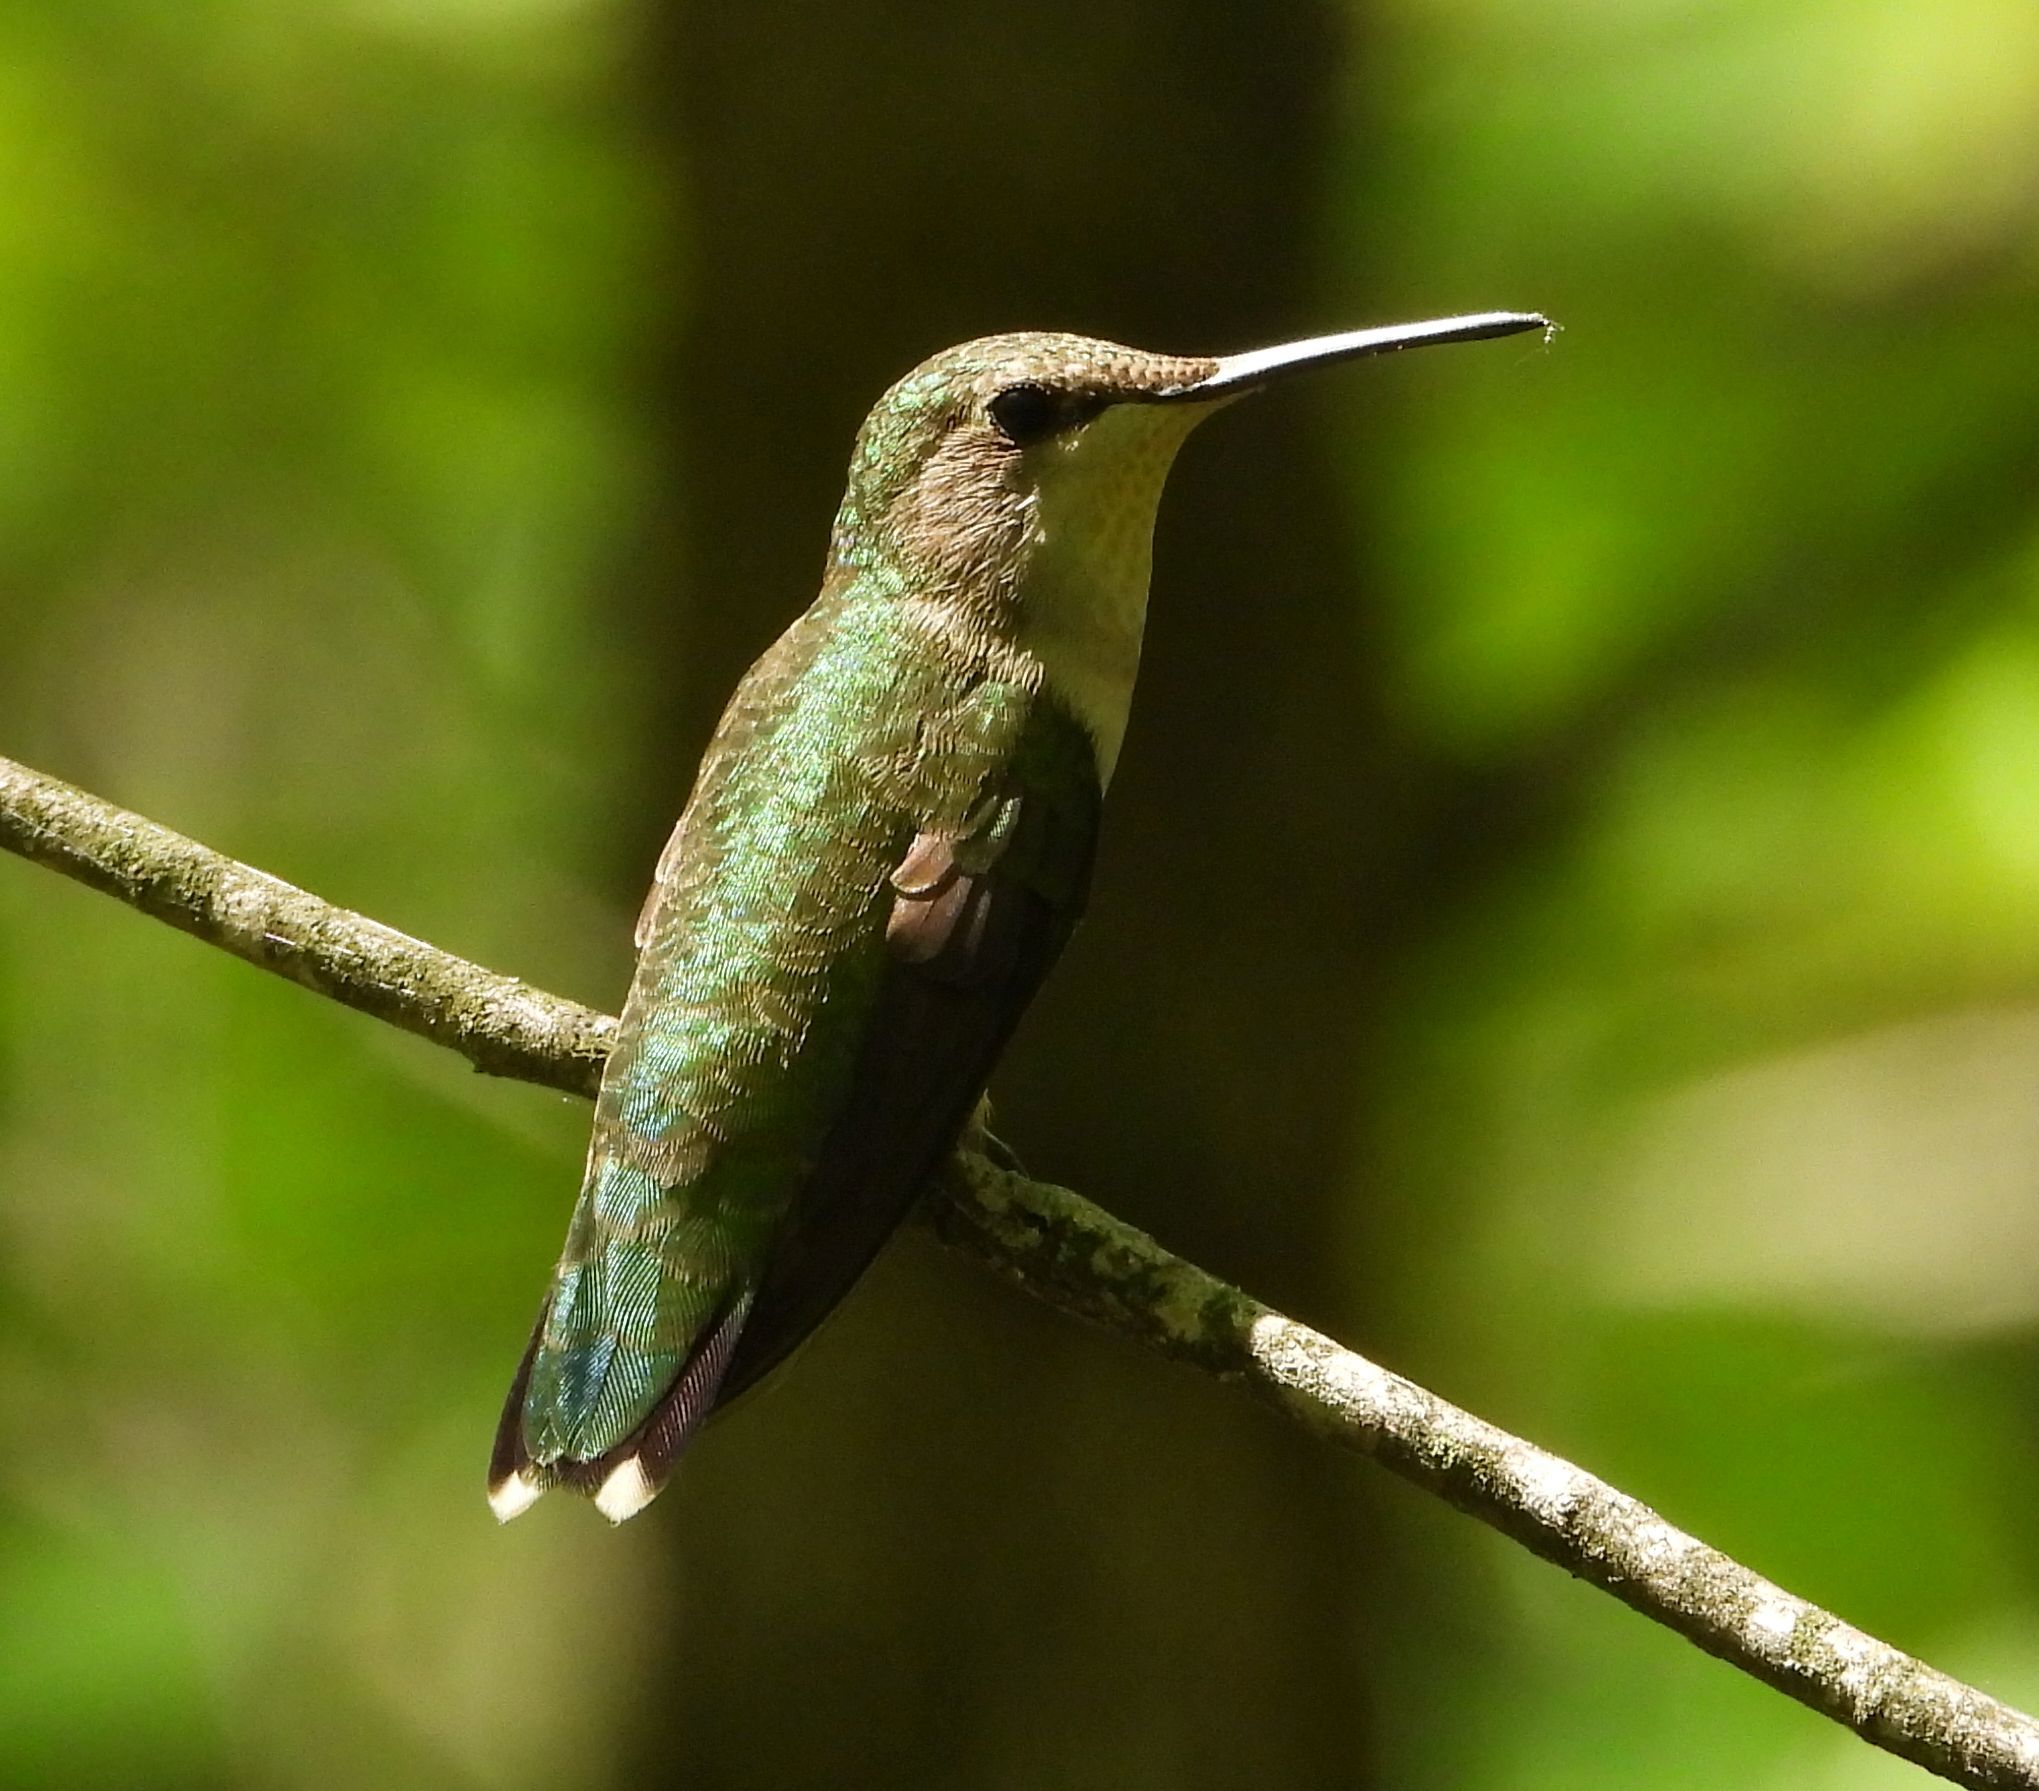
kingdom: Animalia
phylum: Chordata
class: Aves
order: Apodiformes
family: Trochilidae
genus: Archilochus
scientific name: Archilochus colubris
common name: Ruby-throated hummingbird
